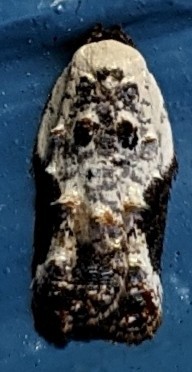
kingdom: Animalia
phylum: Arthropoda
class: Insecta
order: Lepidoptera
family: Tortricidae
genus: Acleris
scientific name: Acleris nivisellana
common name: Snowy-shouldered acleris moth
